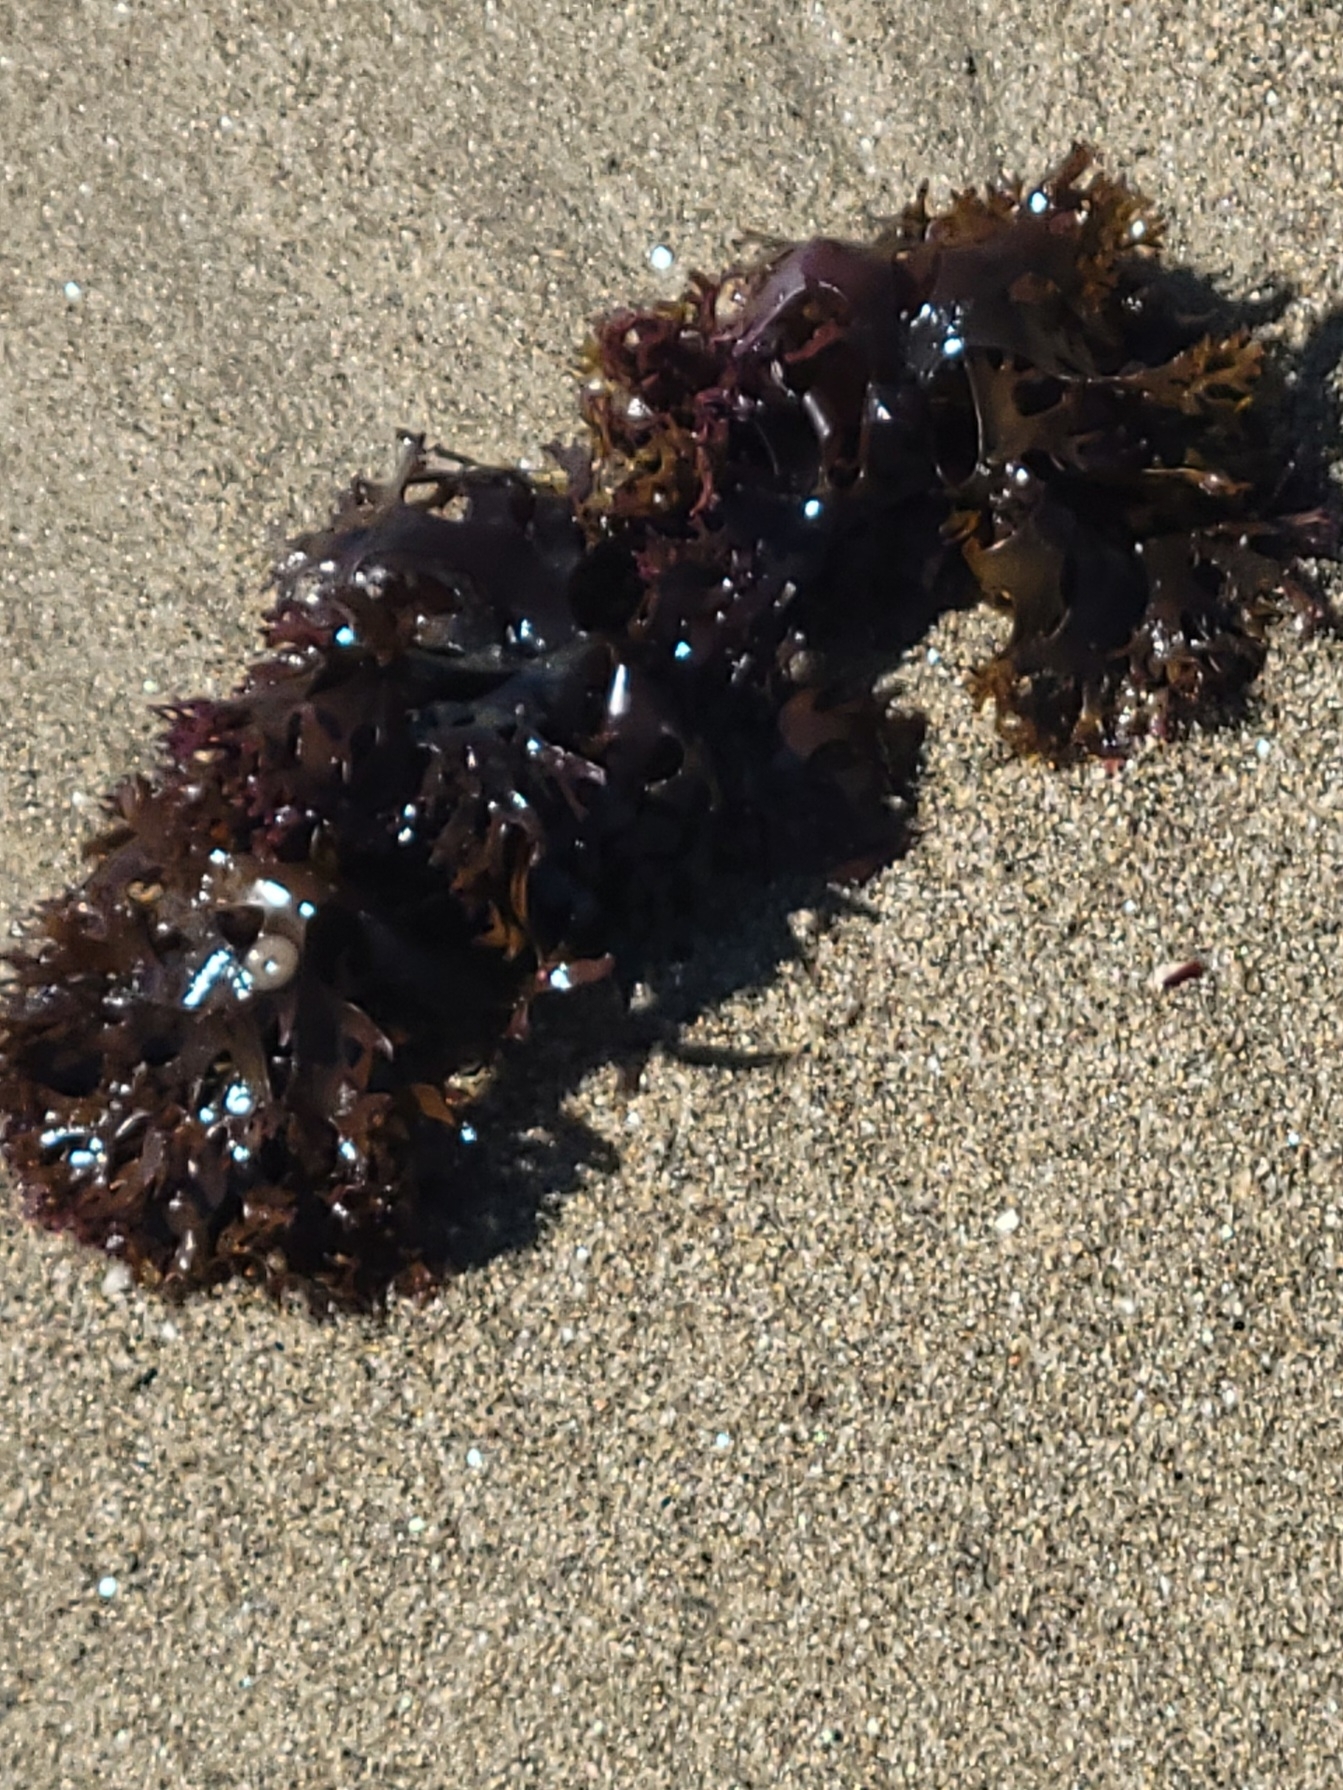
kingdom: Plantae
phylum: Rhodophyta
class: Florideophyceae
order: Gigartinales
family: Gigartinaceae
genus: Chondrus
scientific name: Chondrus crispus
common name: Carrageen
